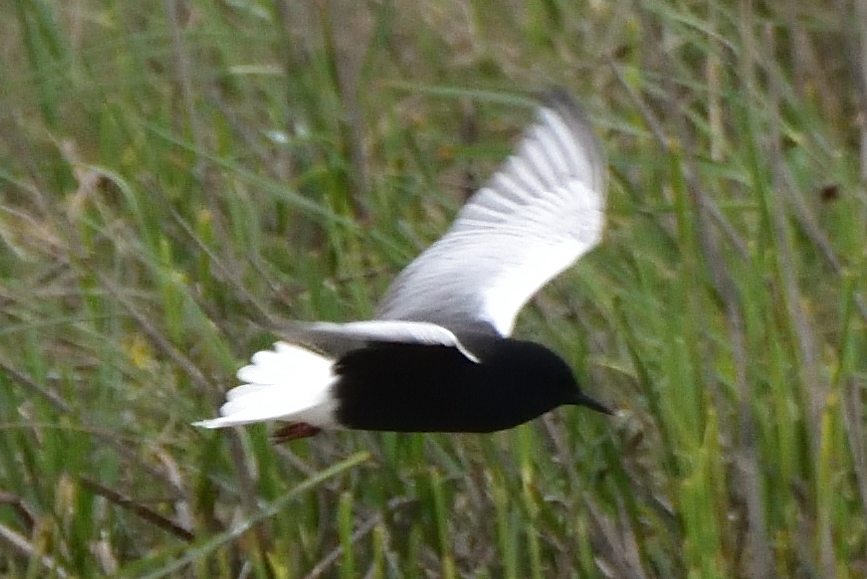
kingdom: Animalia
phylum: Chordata
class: Aves
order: Charadriiformes
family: Laridae
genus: Chlidonias
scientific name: Chlidonias leucopterus
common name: White-winged tern
